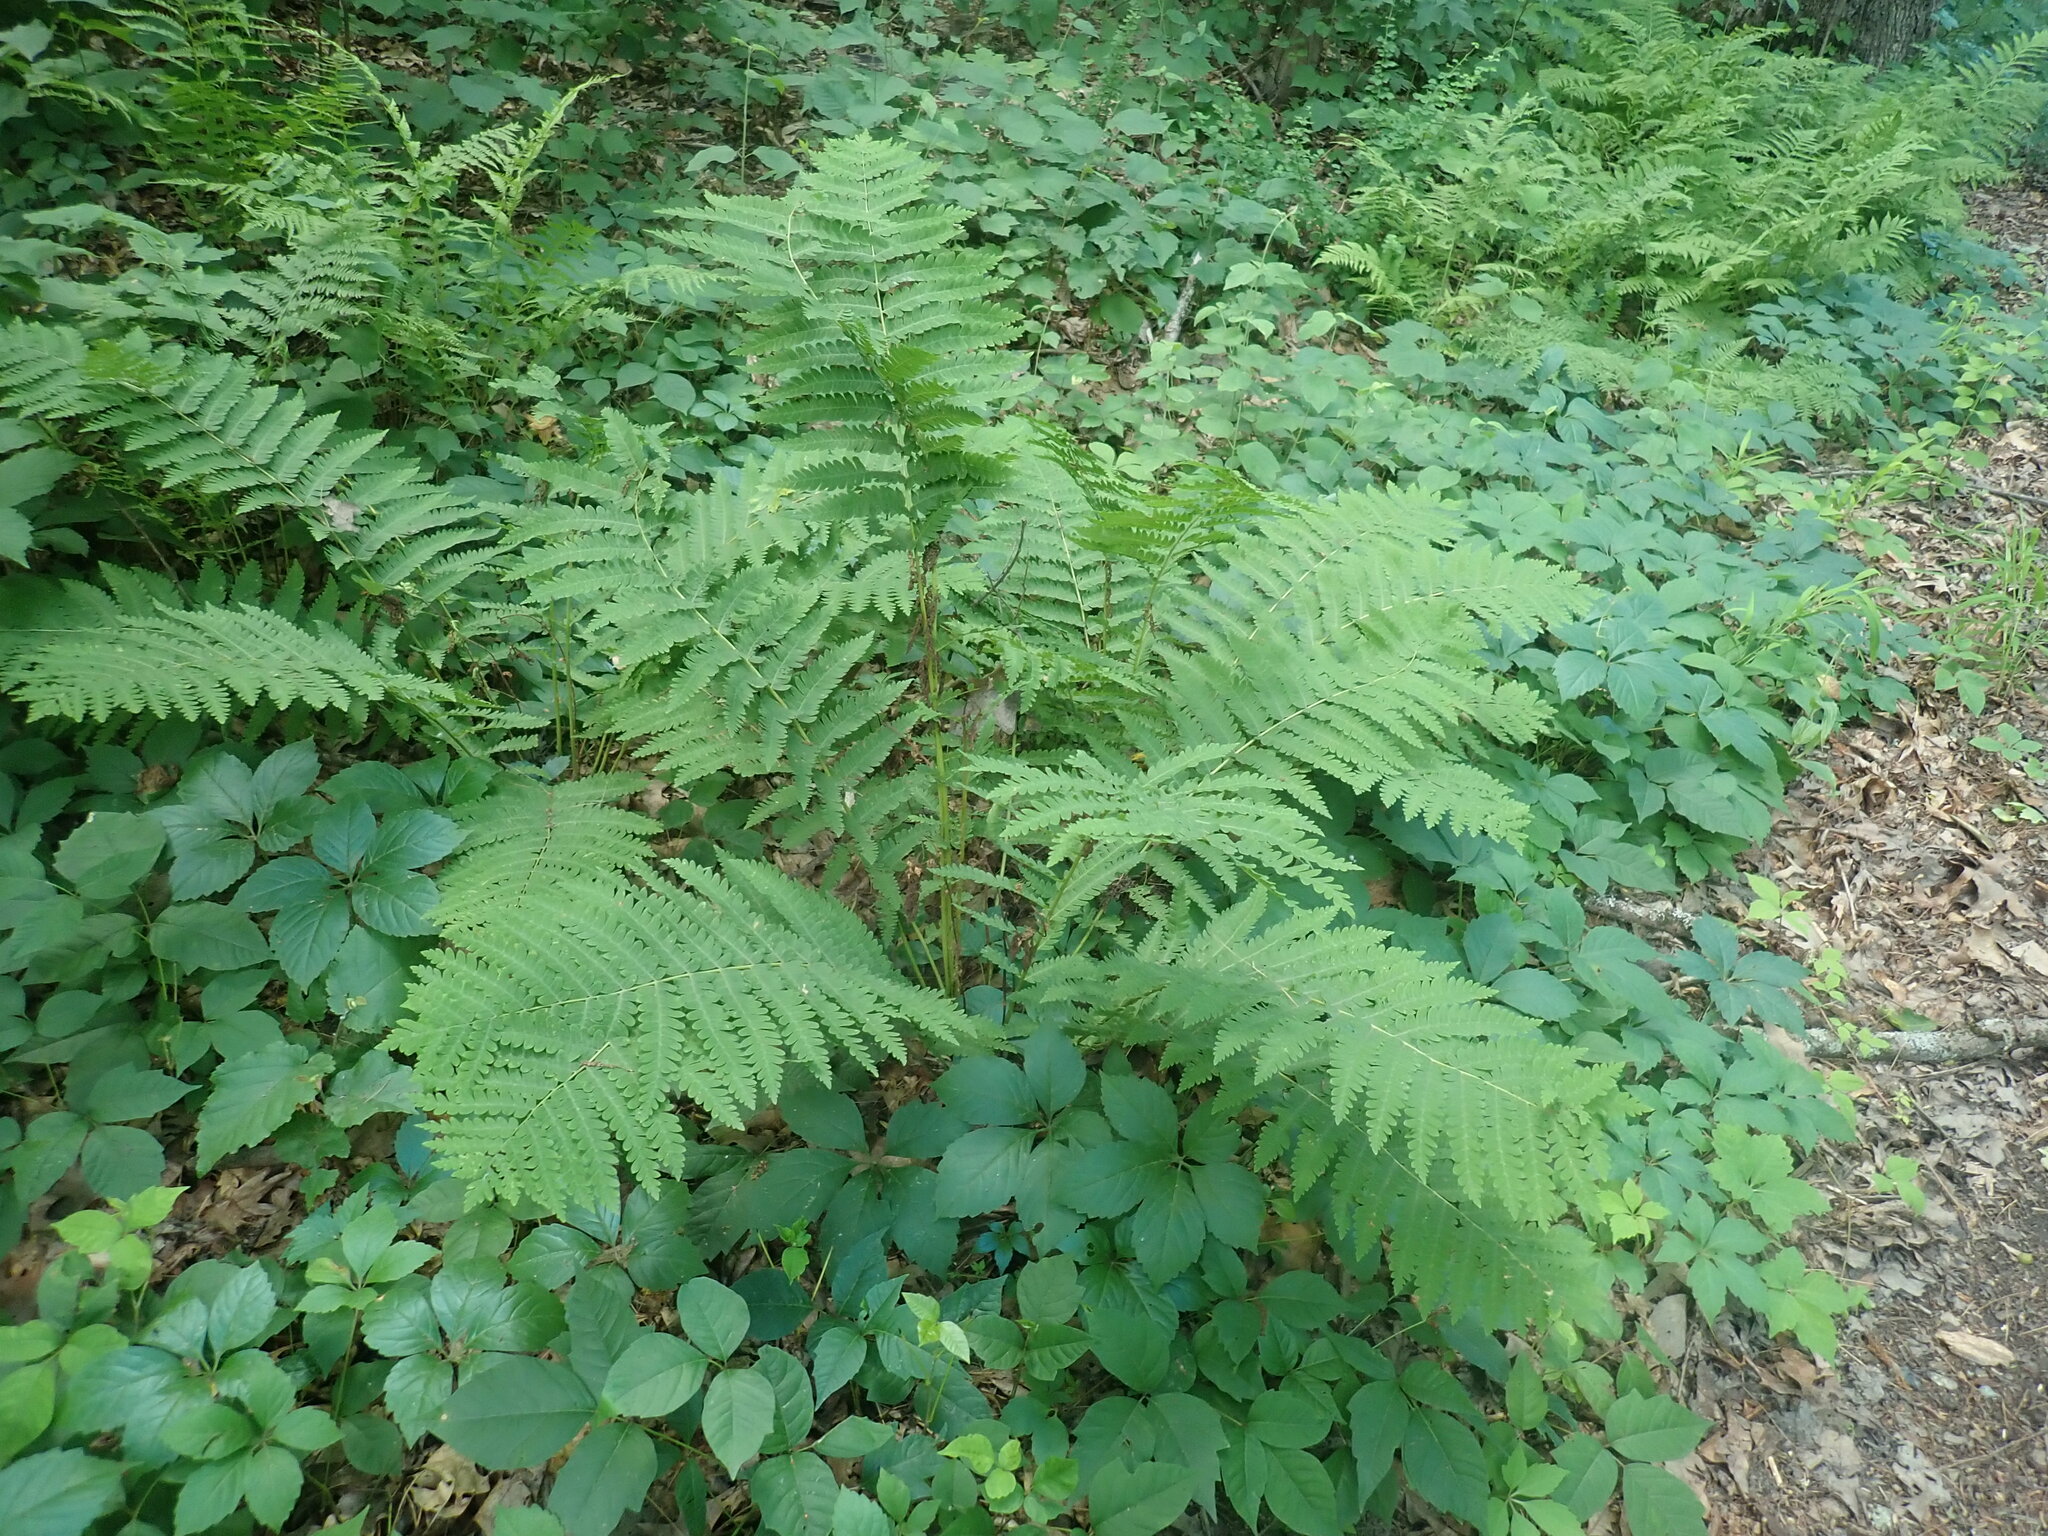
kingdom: Plantae
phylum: Tracheophyta
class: Polypodiopsida
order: Osmundales
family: Osmundaceae
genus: Claytosmunda
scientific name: Claytosmunda claytoniana
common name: Clayton's fern
